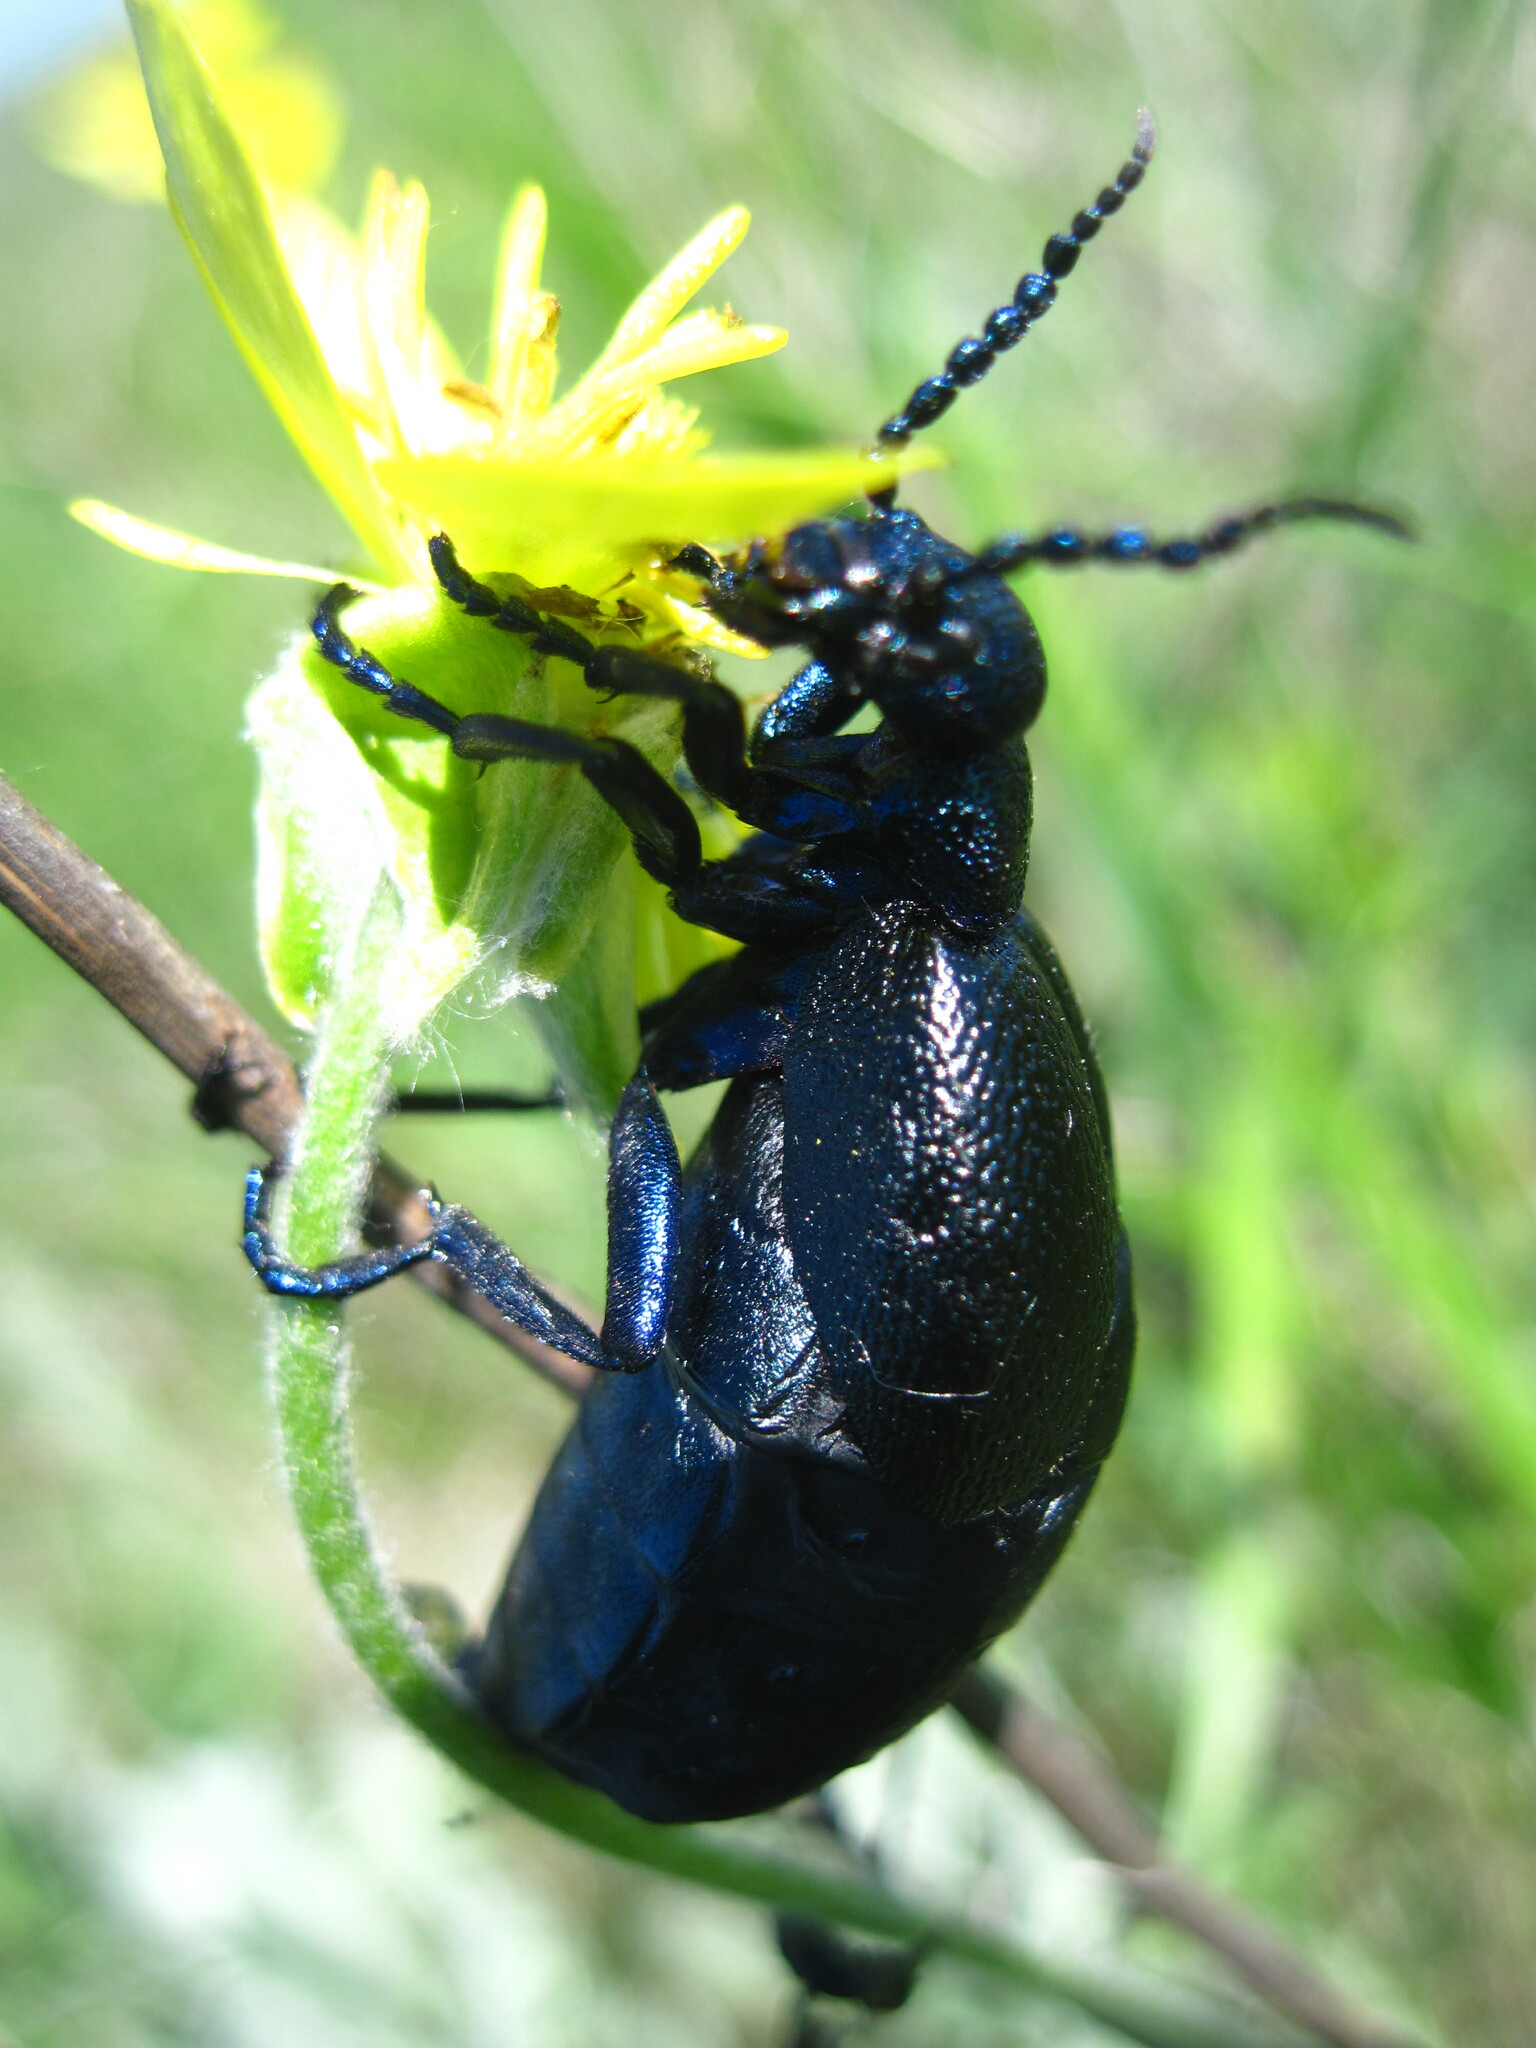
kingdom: Animalia
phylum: Arthropoda
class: Insecta
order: Coleoptera
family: Meloidae
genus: Meloe
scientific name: Meloe proscarabaeus
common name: Black oil-beetle
